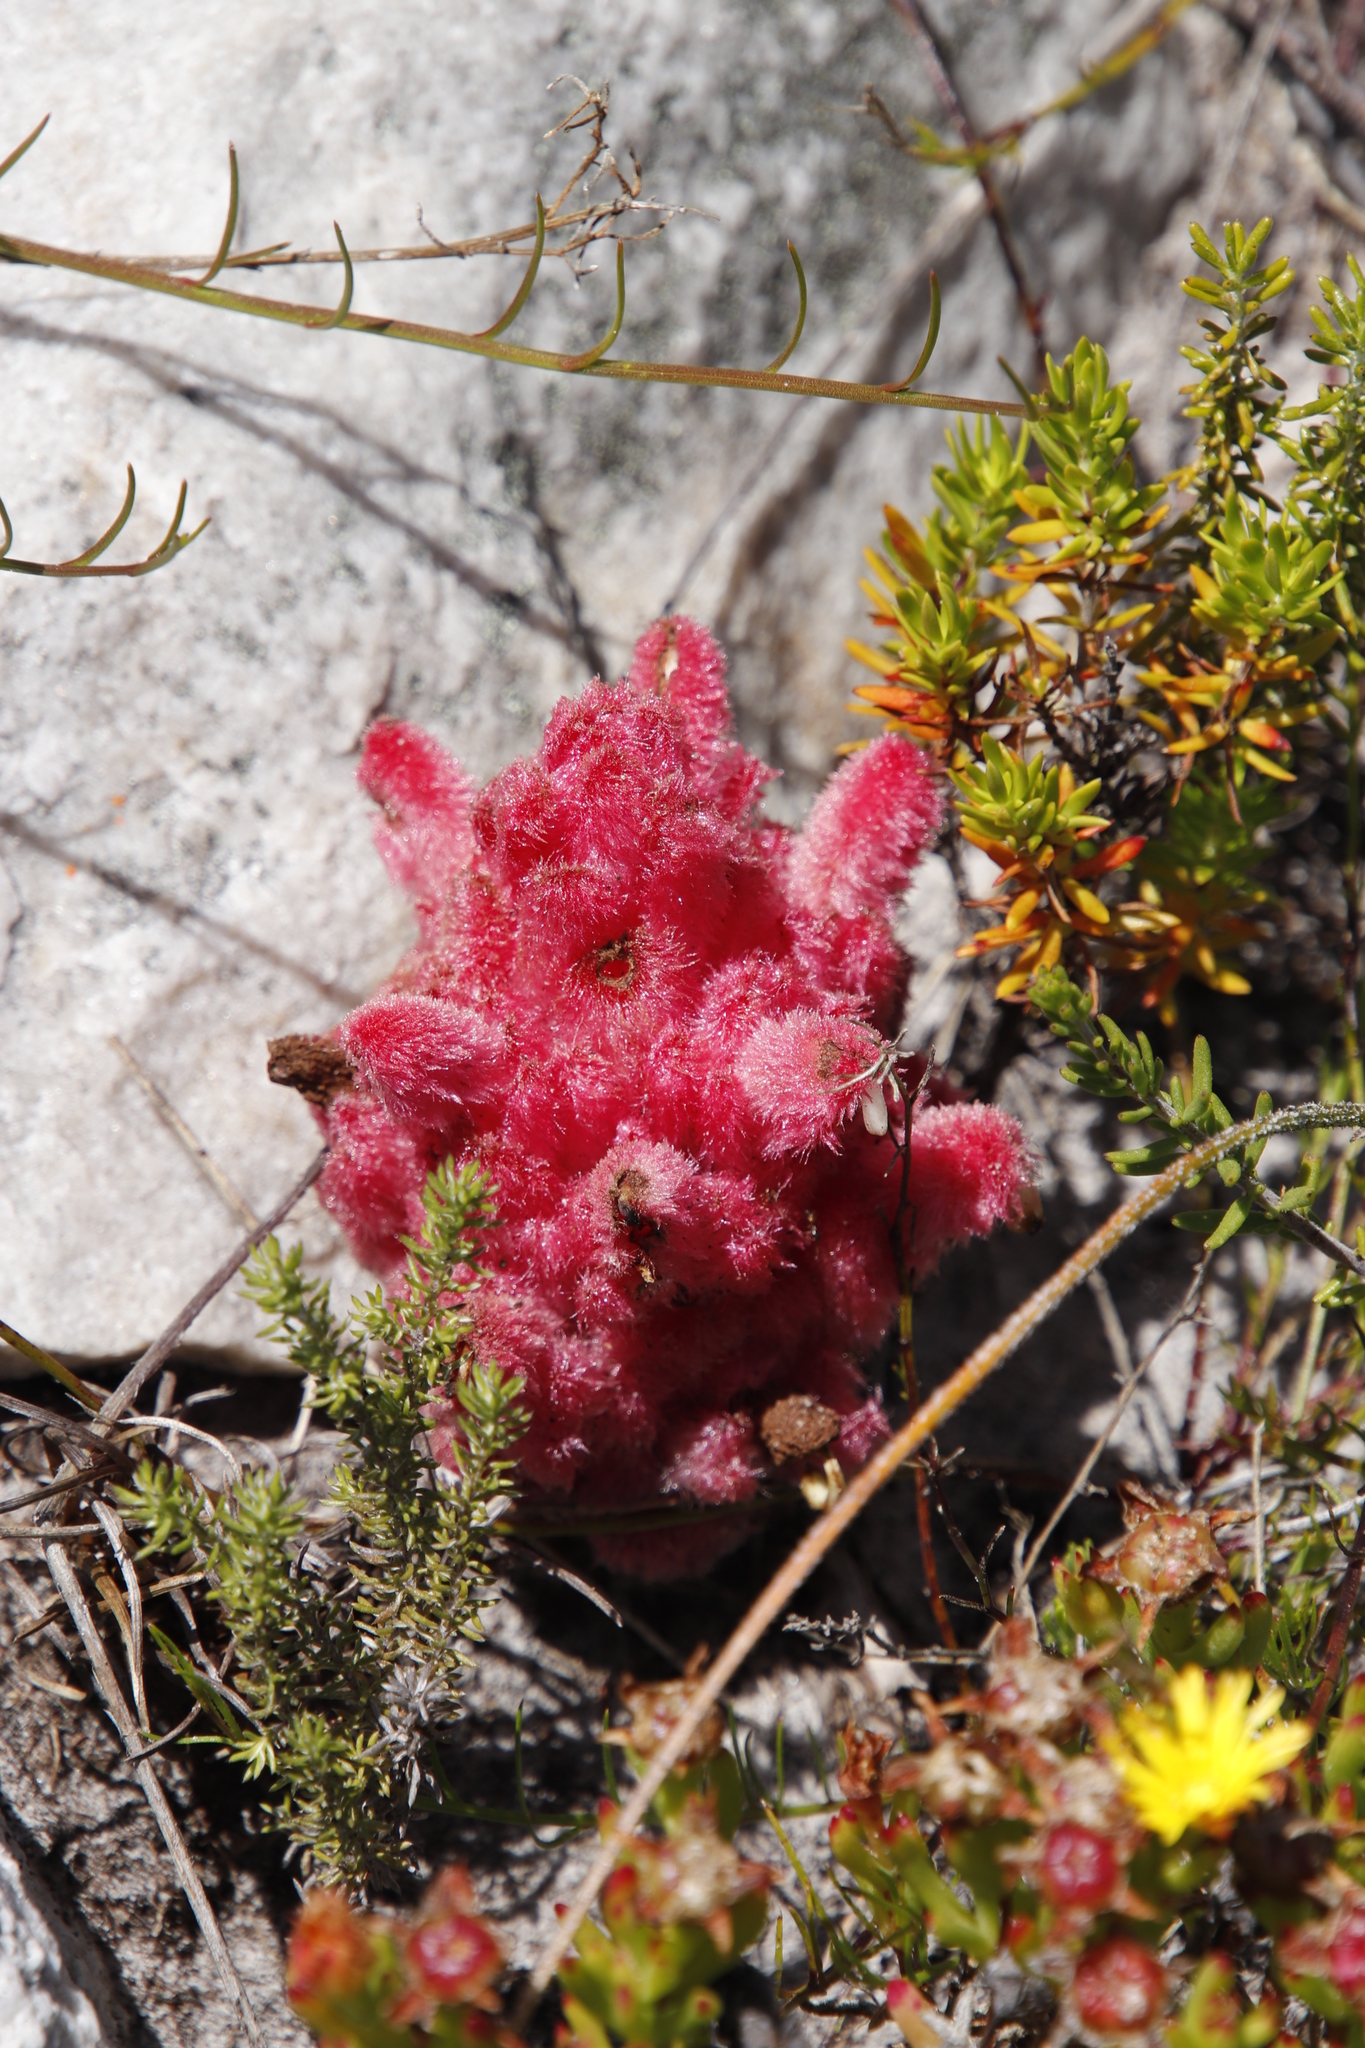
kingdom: Plantae
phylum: Tracheophyta
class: Magnoliopsida
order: Lamiales
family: Orobanchaceae
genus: Hyobanche
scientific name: Hyobanche sanguinea
